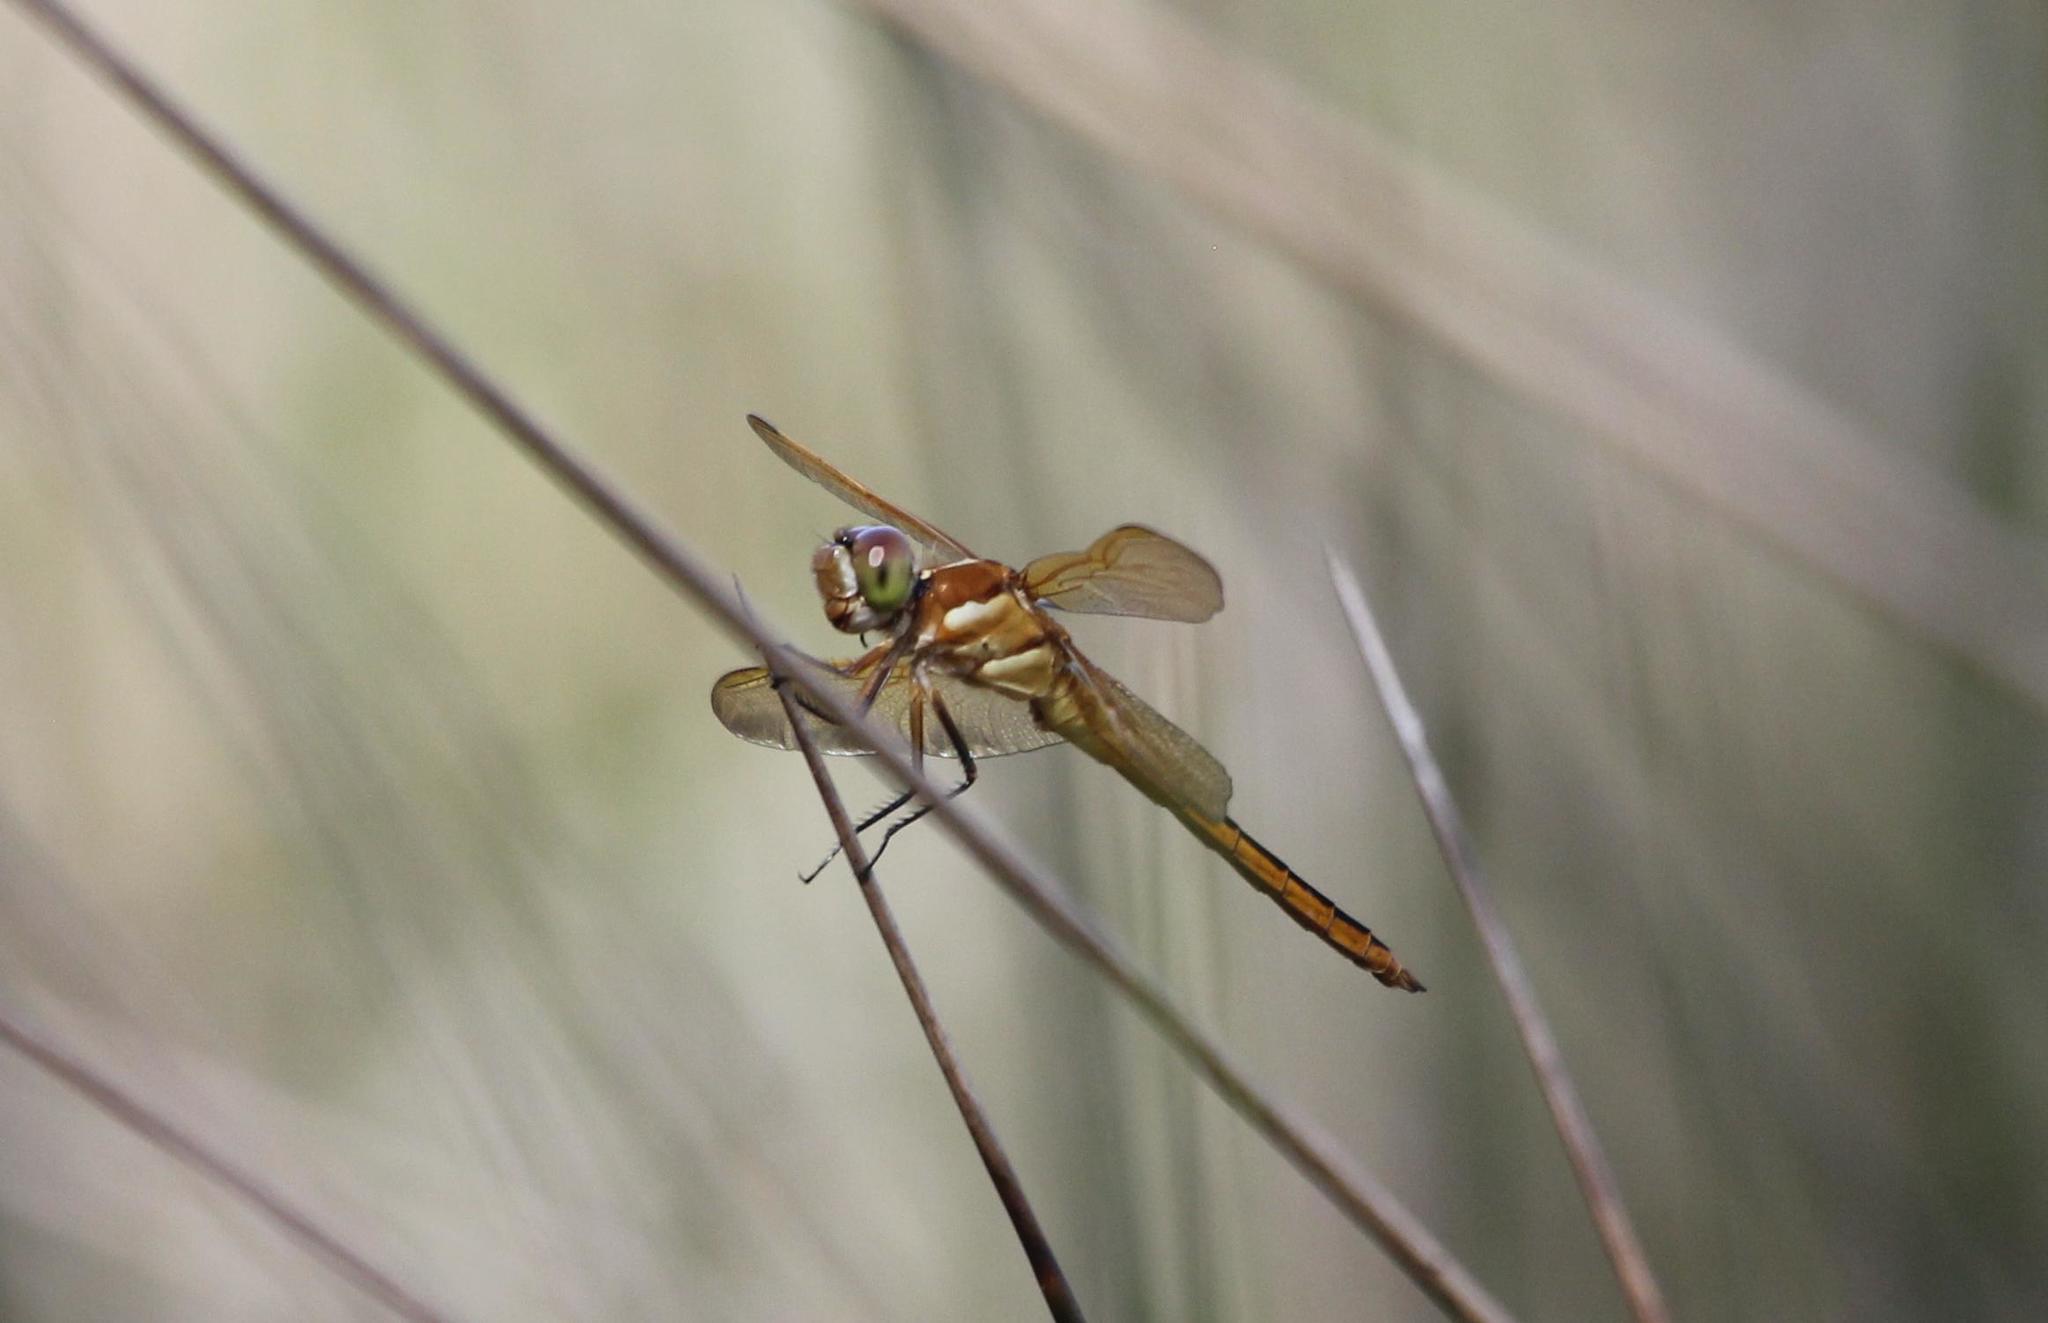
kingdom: Animalia
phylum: Arthropoda
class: Insecta
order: Odonata
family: Libellulidae
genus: Libellula
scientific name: Libellula auripennis
